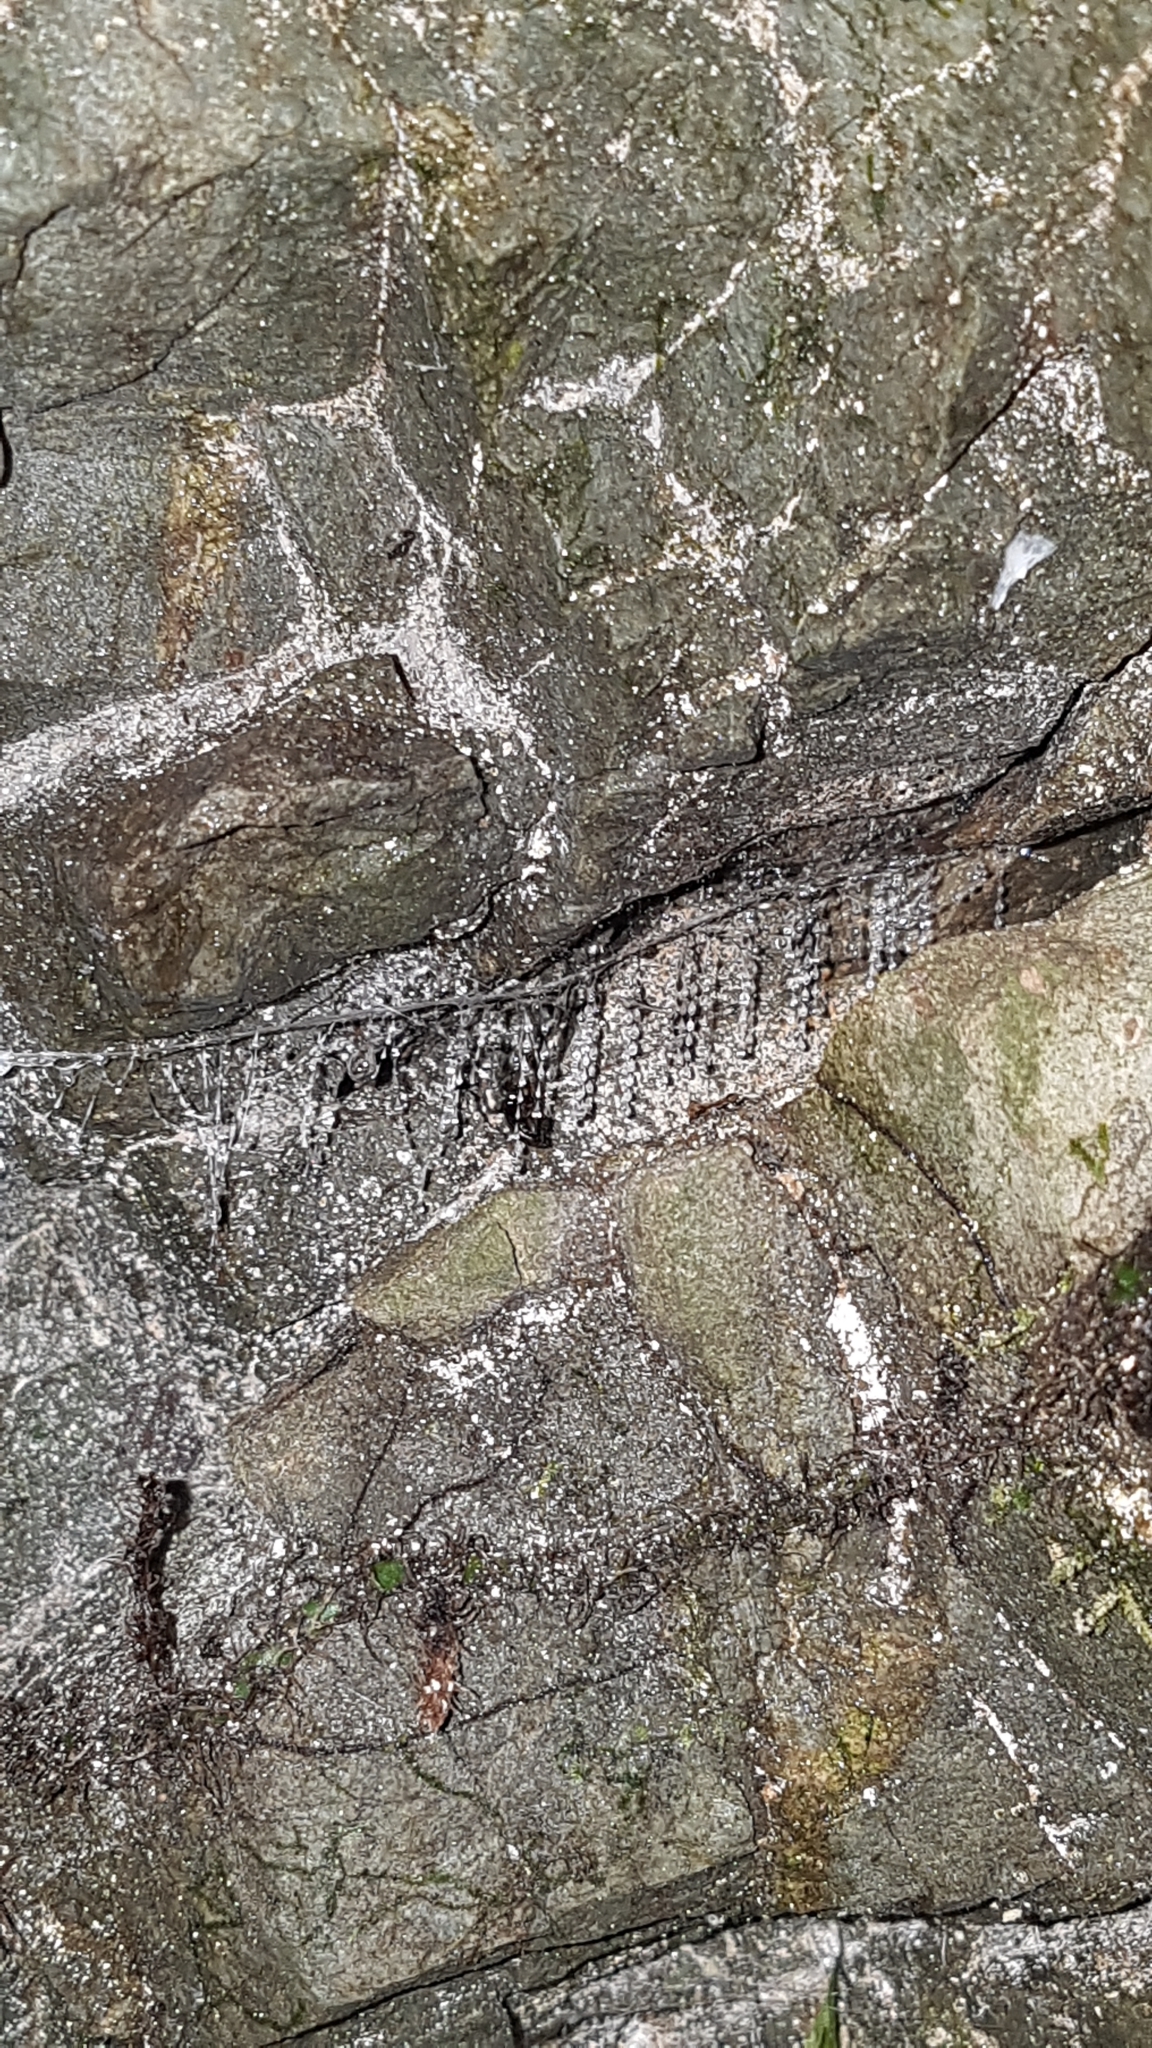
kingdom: Animalia
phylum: Arthropoda
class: Insecta
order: Diptera
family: Keroplatidae
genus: Arachnocampa
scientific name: Arachnocampa luminosa
